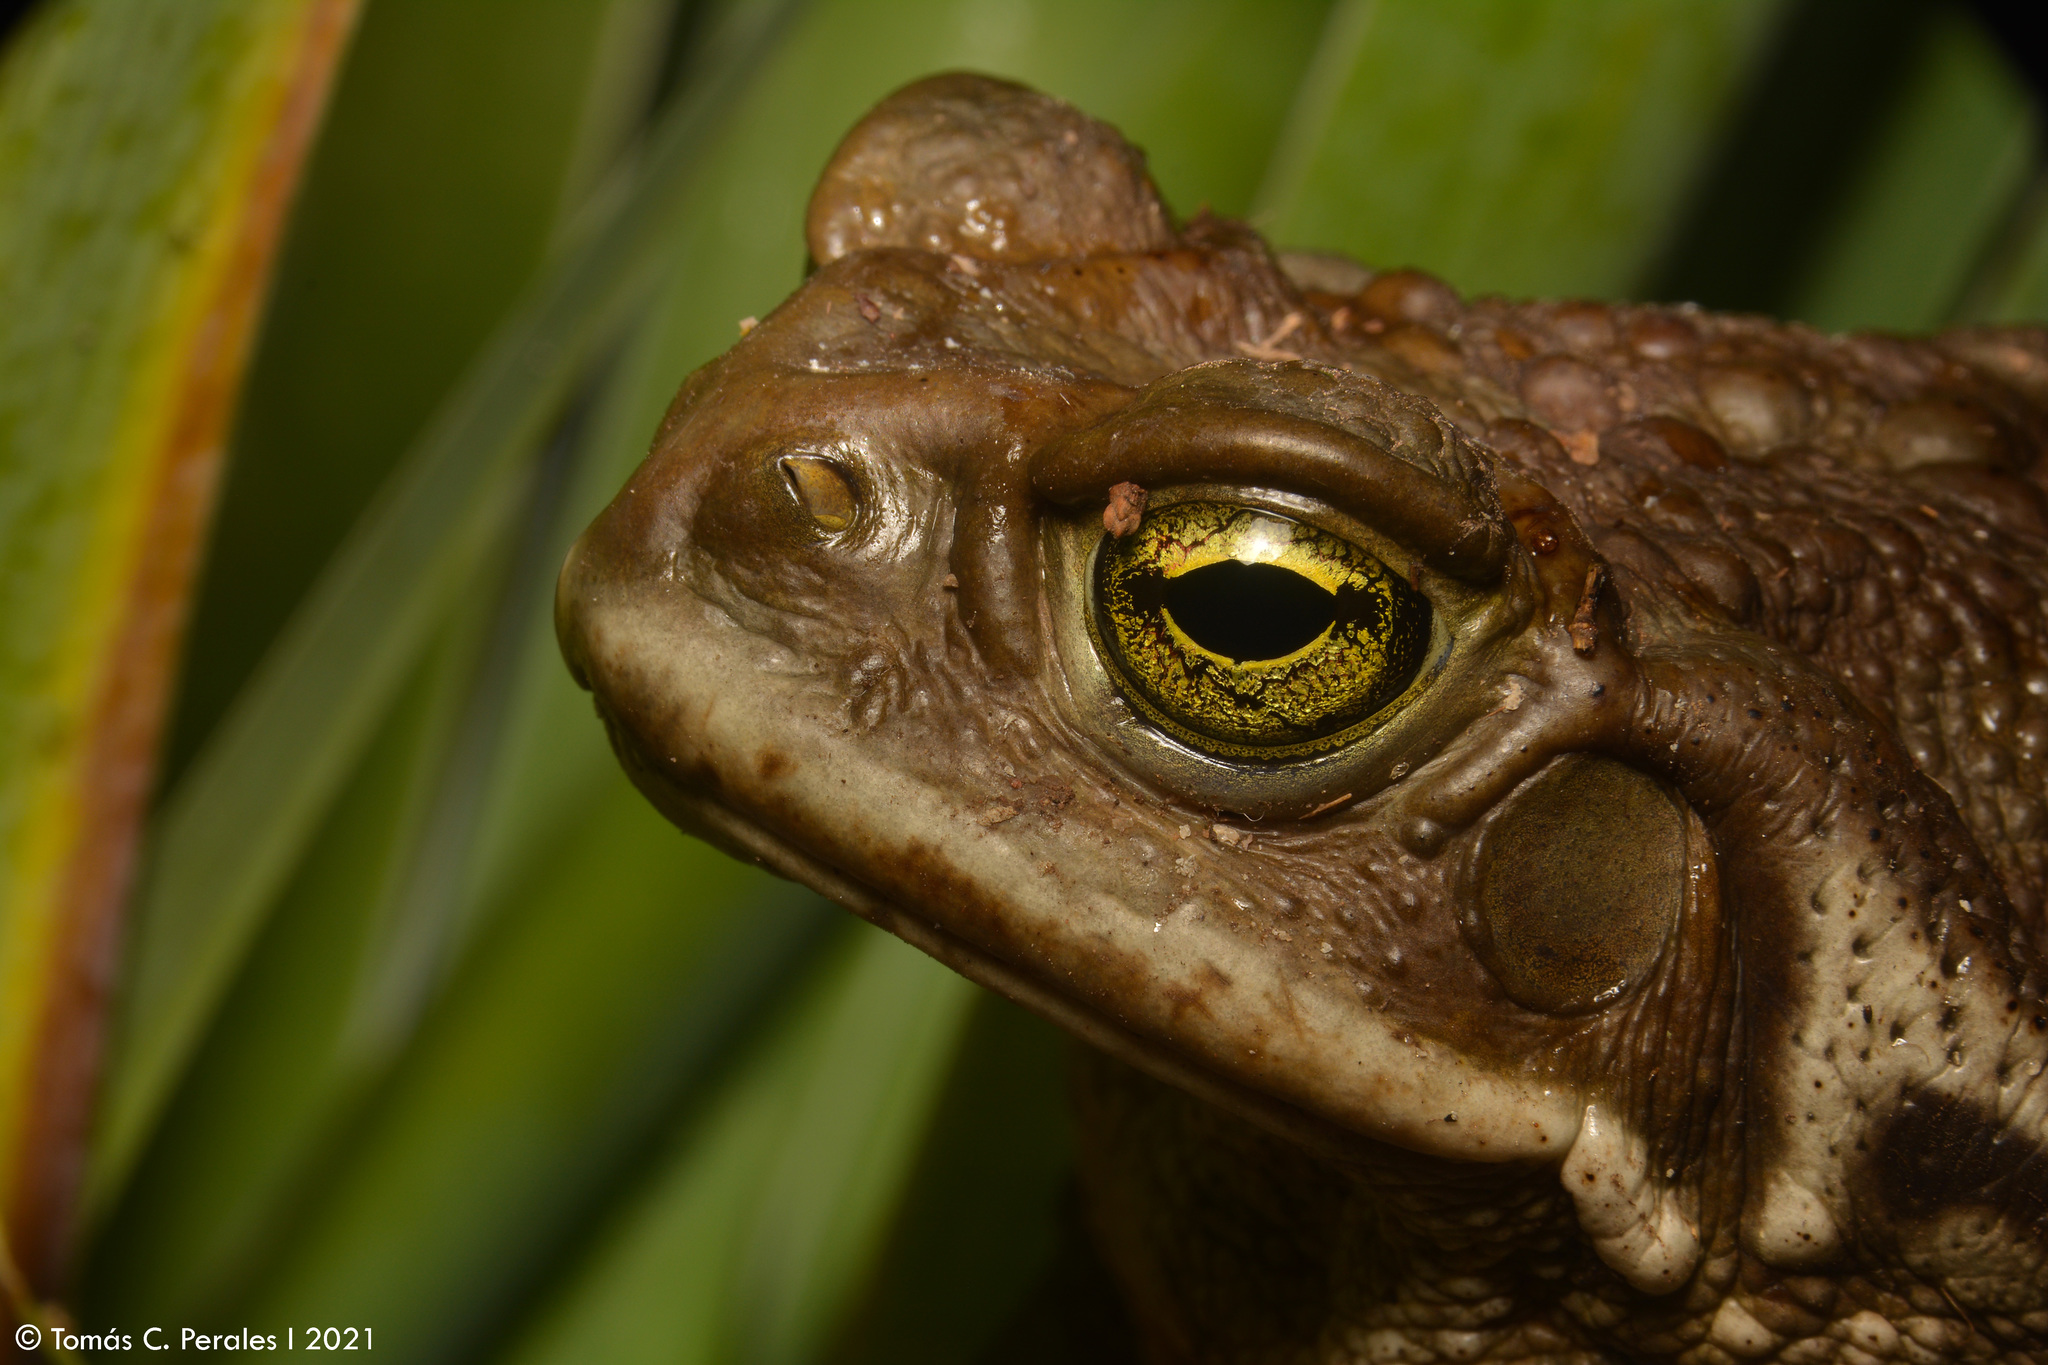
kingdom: Animalia
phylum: Chordata
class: Amphibia
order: Anura
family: Bufonidae
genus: Rhinella
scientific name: Rhinella arenarum
